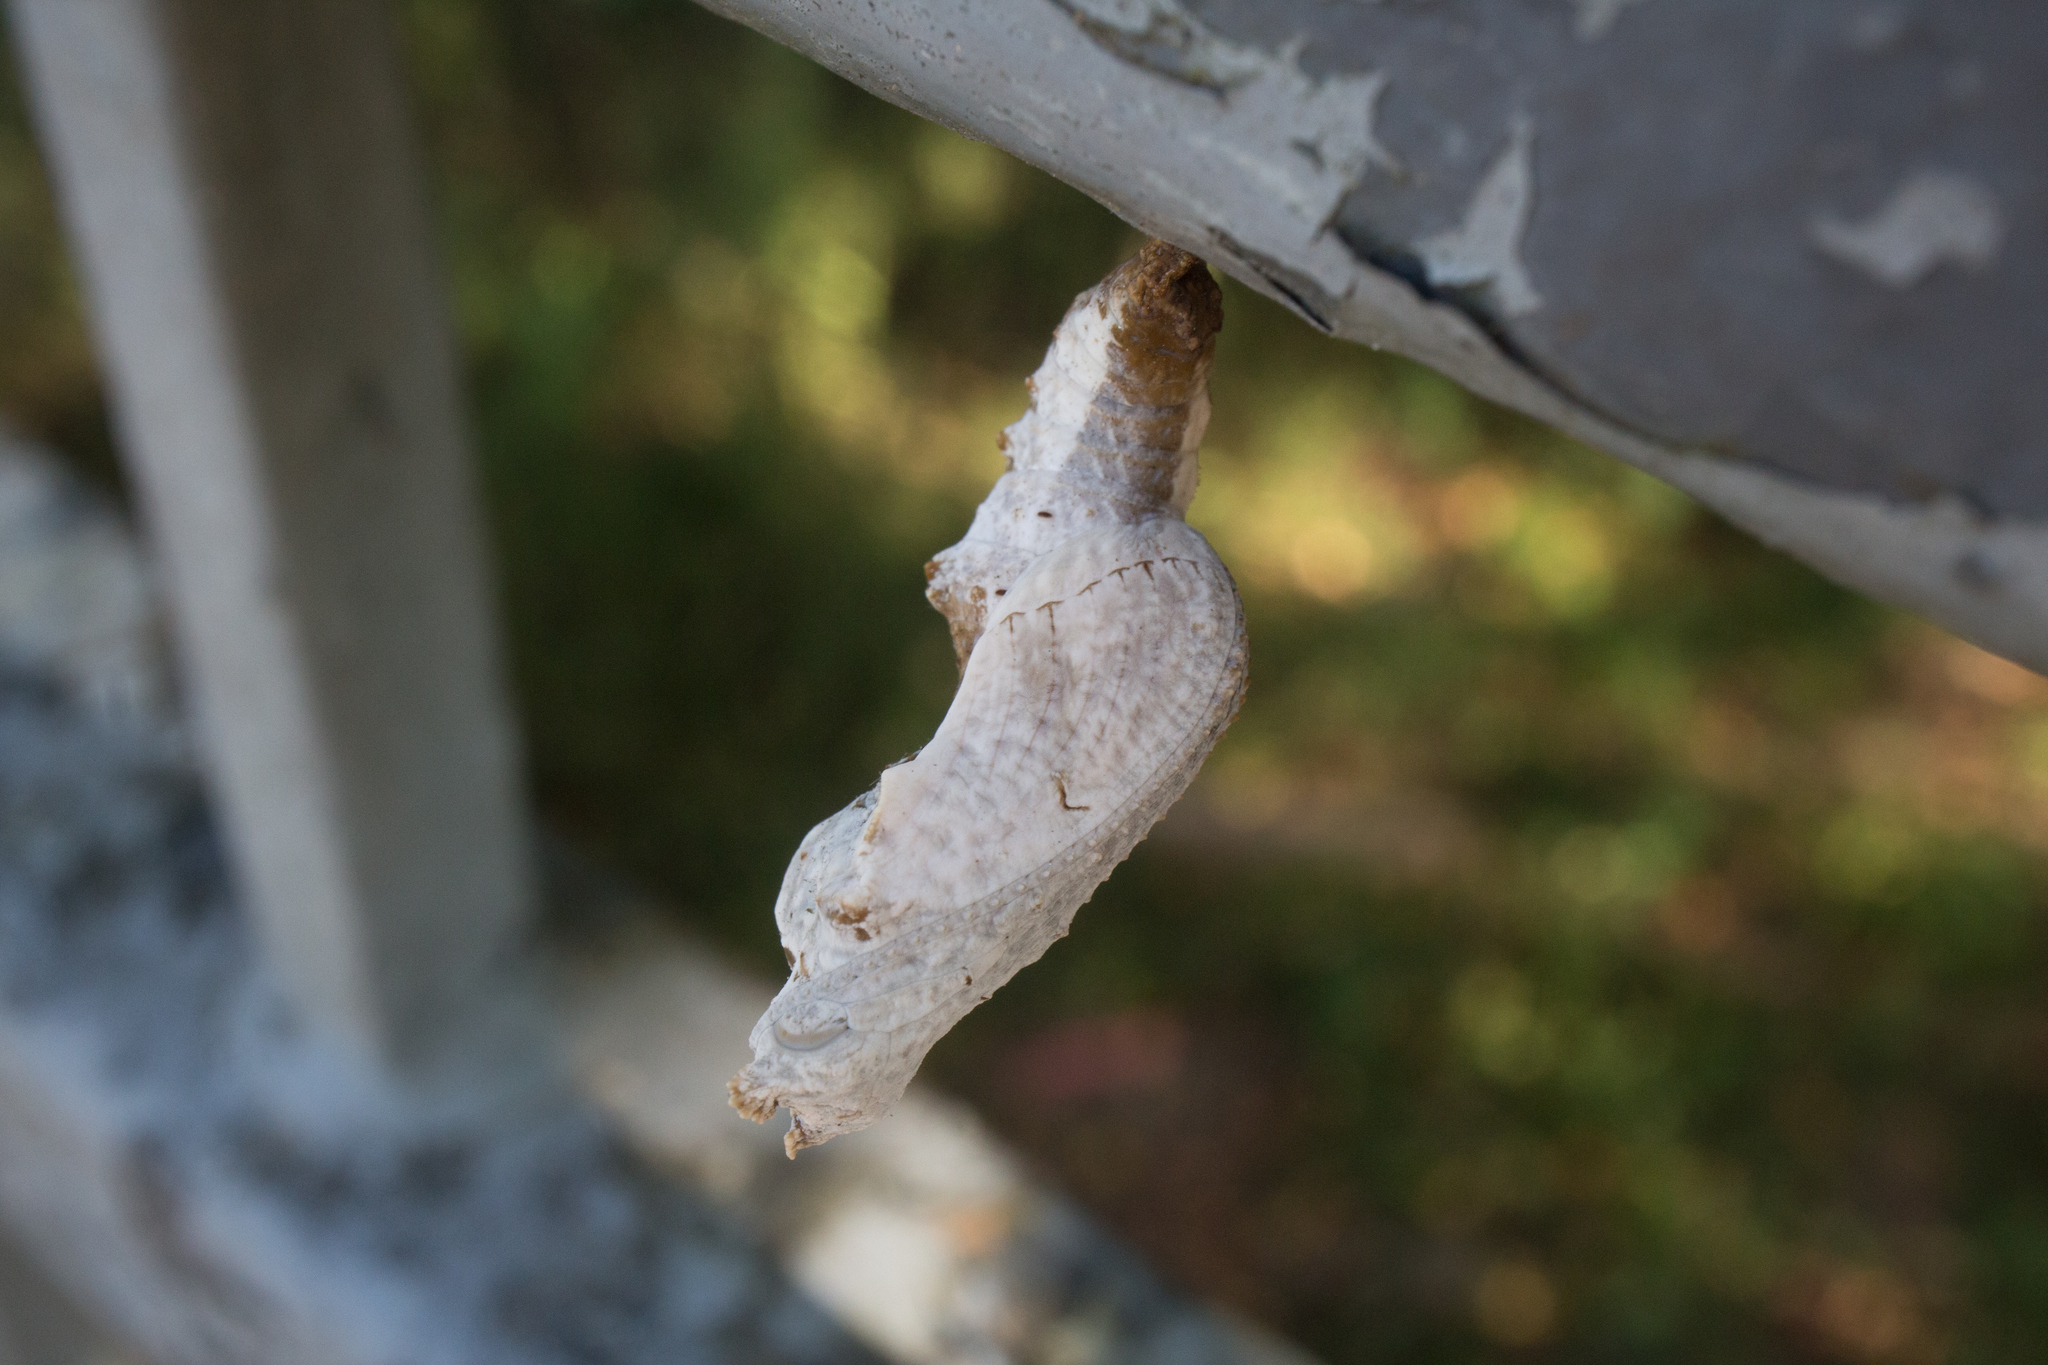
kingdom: Animalia
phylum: Arthropoda
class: Insecta
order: Lepidoptera
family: Nymphalidae
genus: Dione
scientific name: Dione vanillae
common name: Gulf fritillary
